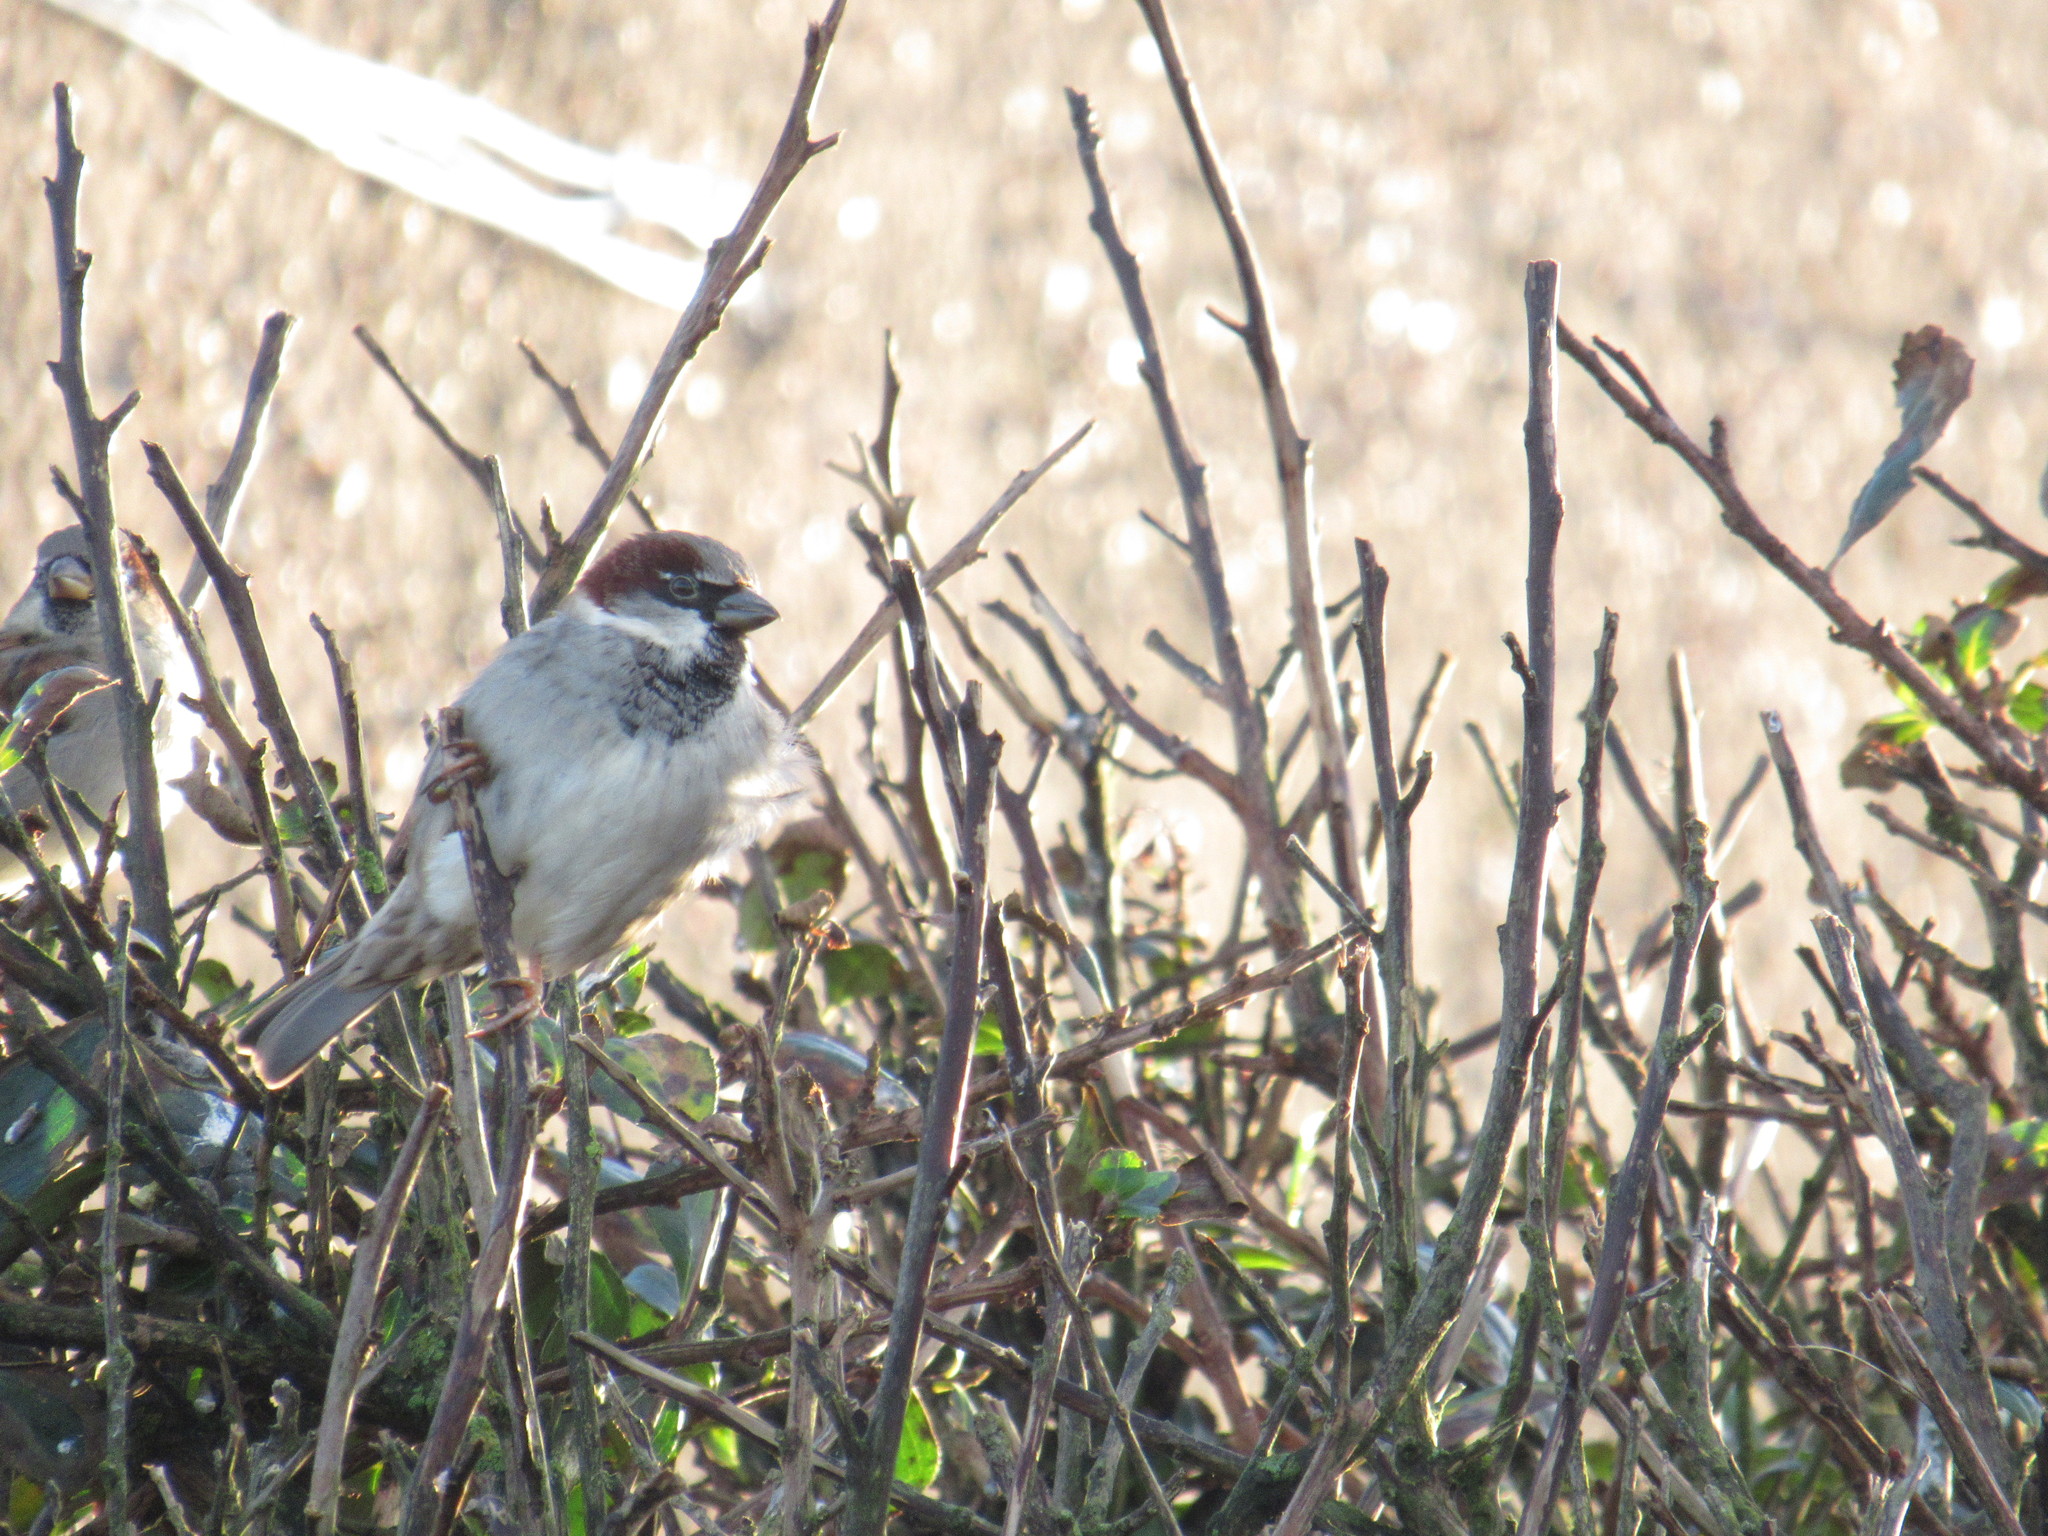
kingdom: Animalia
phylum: Chordata
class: Aves
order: Passeriformes
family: Passeridae
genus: Passer
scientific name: Passer domesticus
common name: House sparrow
